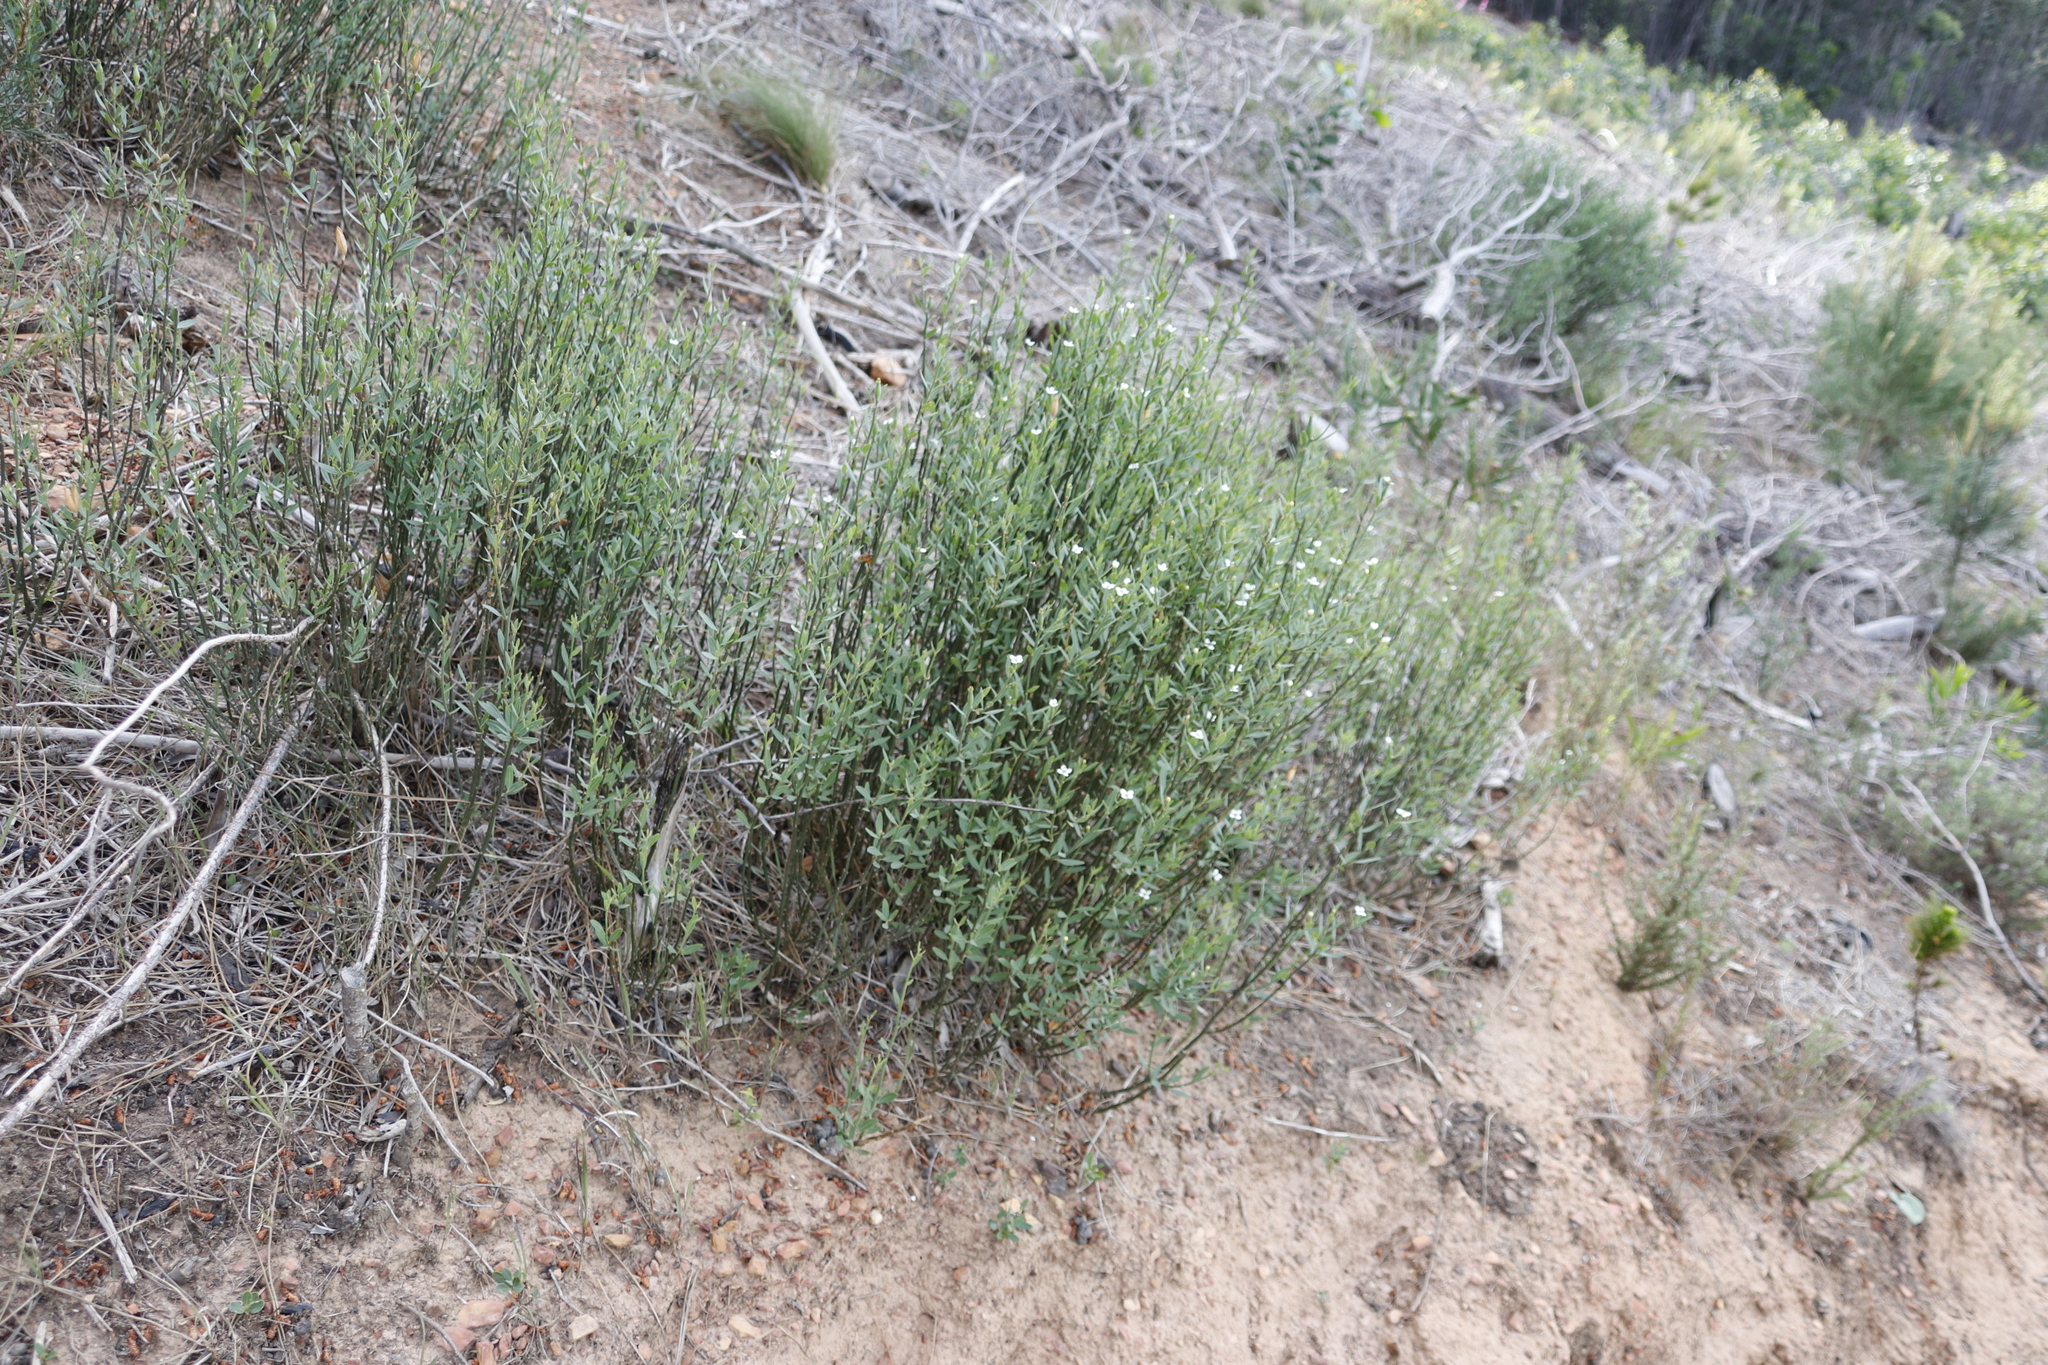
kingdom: Plantae
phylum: Tracheophyta
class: Magnoliopsida
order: Solanales
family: Montiniaceae
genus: Montinia
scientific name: Montinia caryophyllacea
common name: Wild clove-bush
